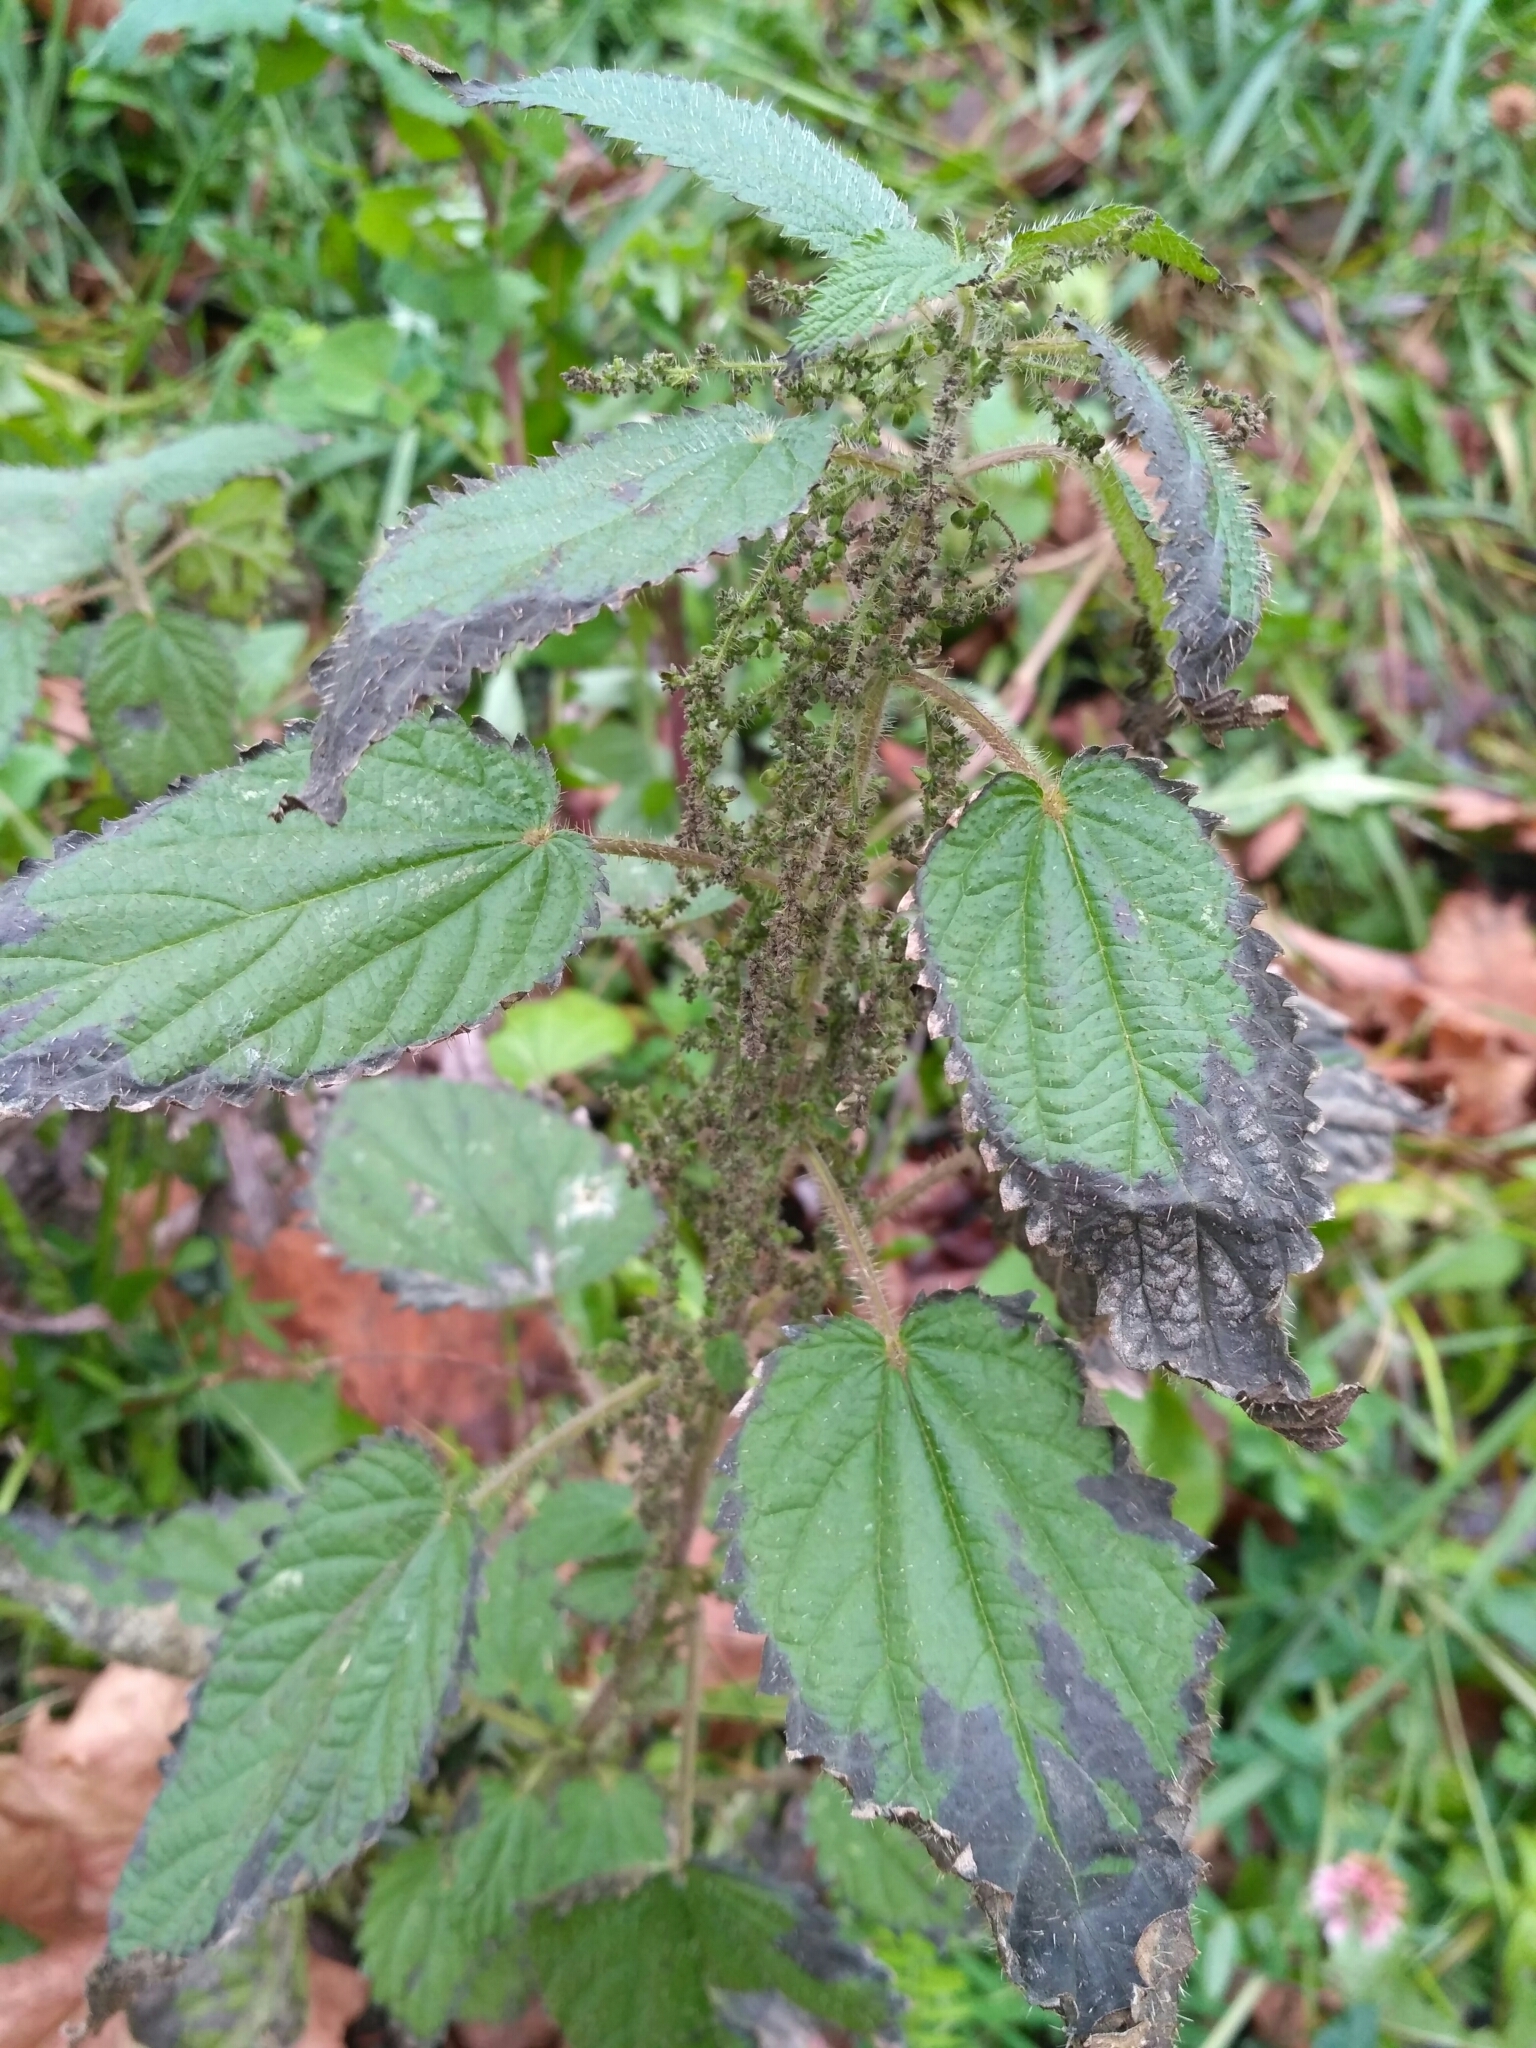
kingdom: Plantae
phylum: Tracheophyta
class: Magnoliopsida
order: Rosales
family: Urticaceae
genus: Urtica
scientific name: Urtica dioica
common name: Common nettle
